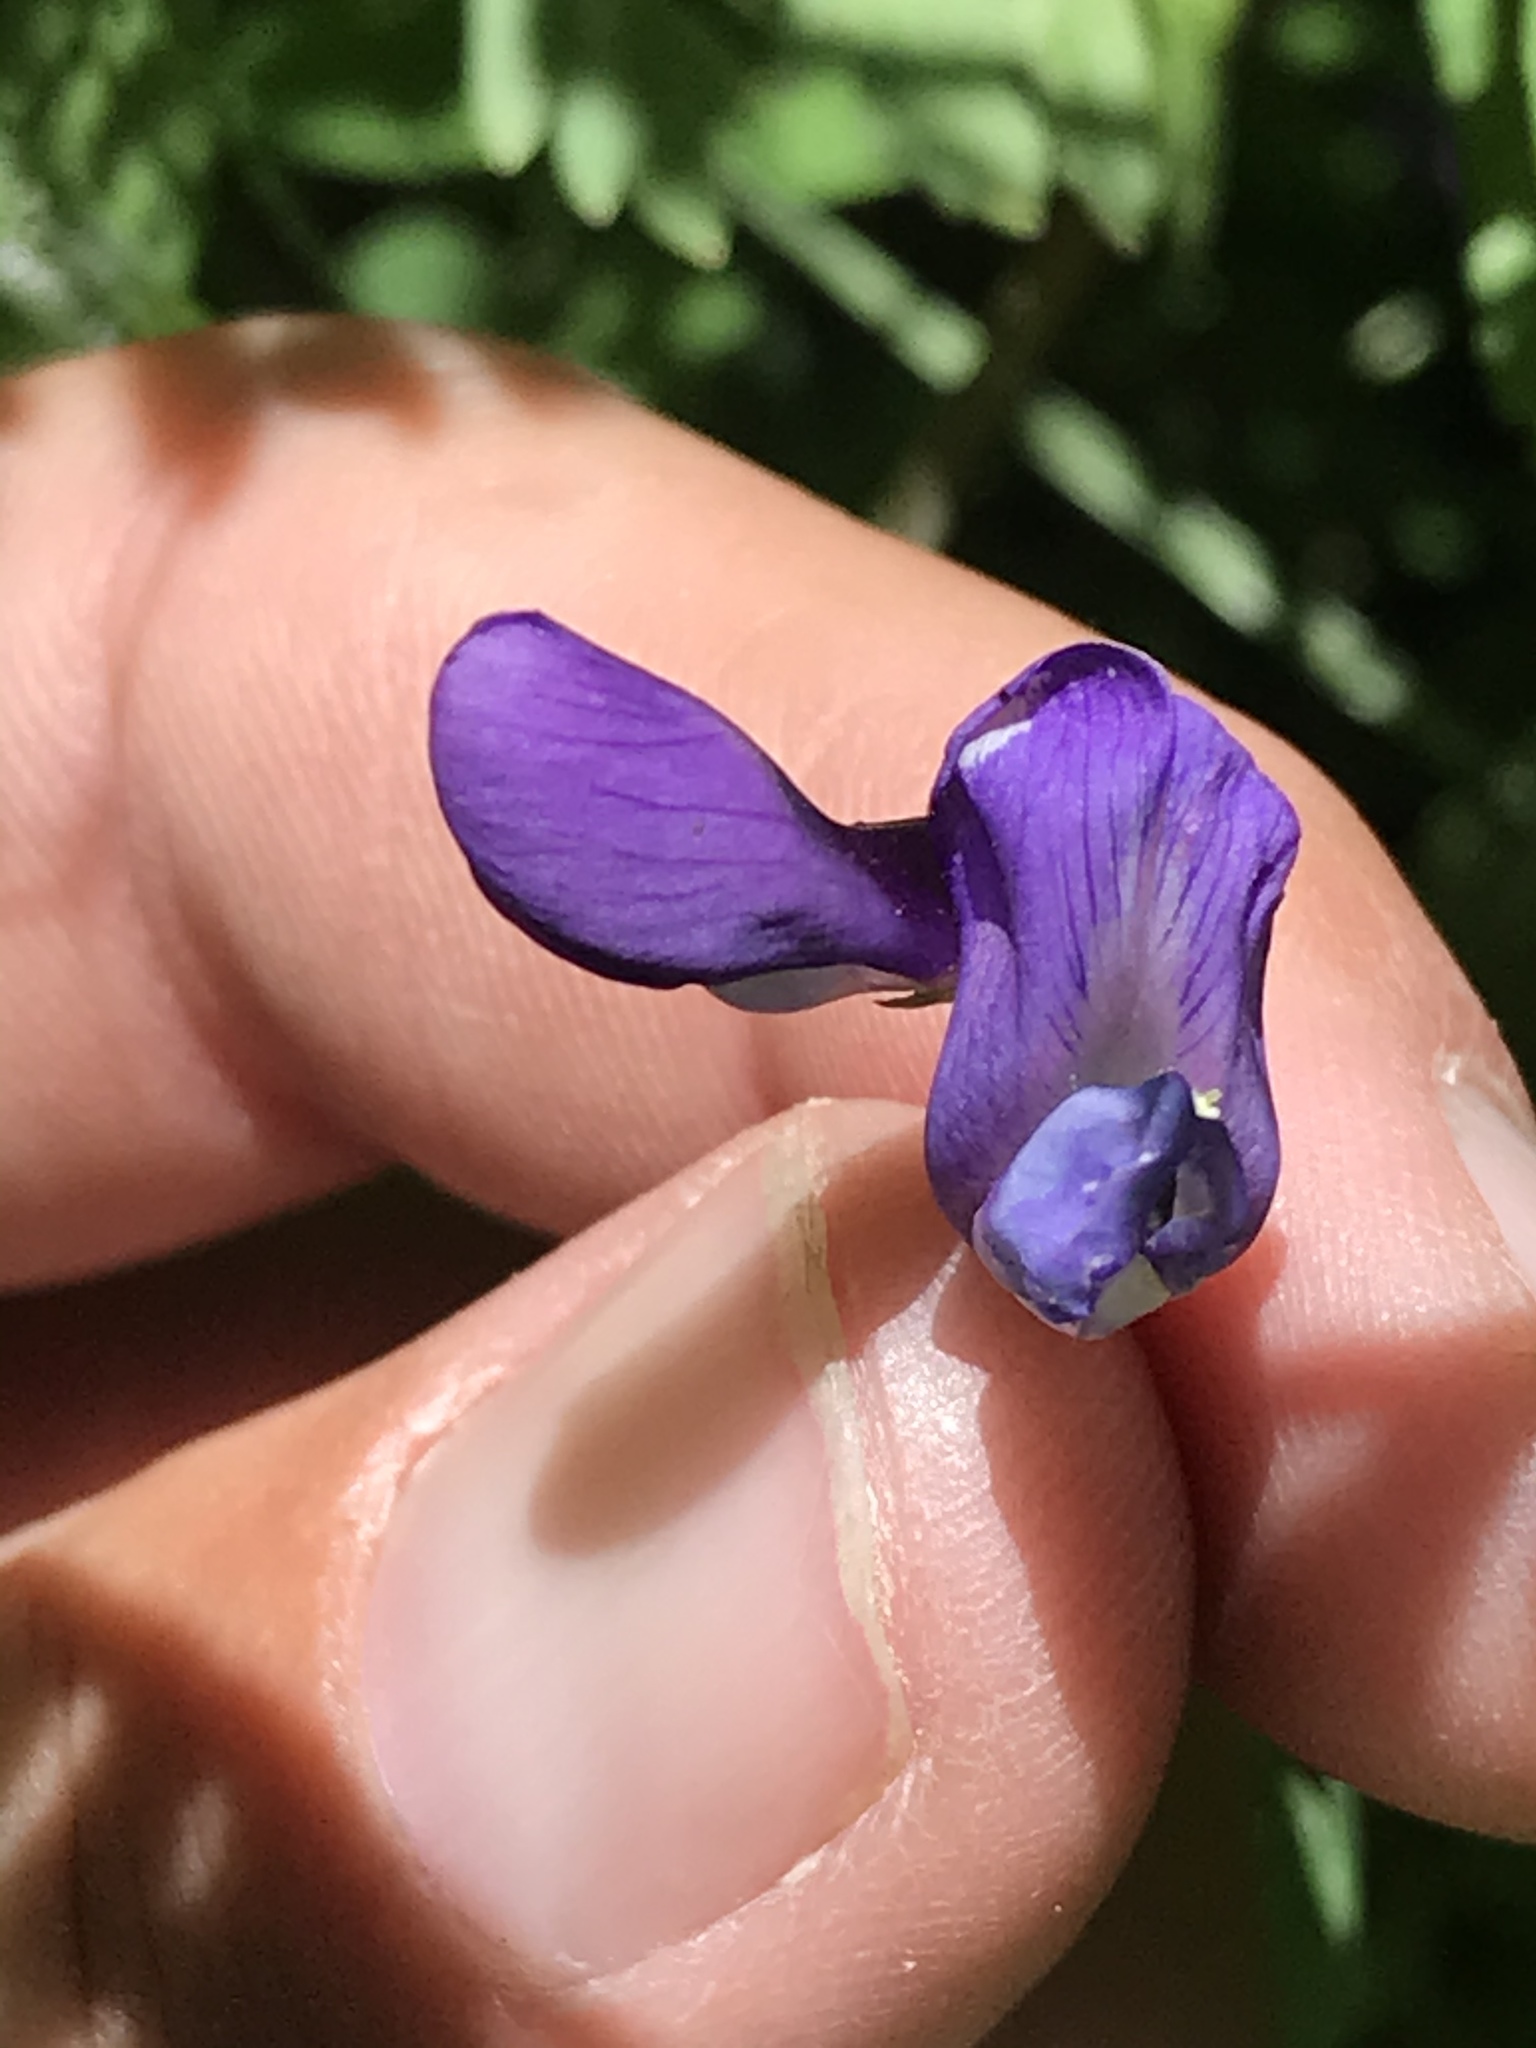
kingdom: Plantae
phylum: Tracheophyta
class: Magnoliopsida
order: Fabales
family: Fabaceae
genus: Vicia
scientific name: Vicia americana
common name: American vetch
